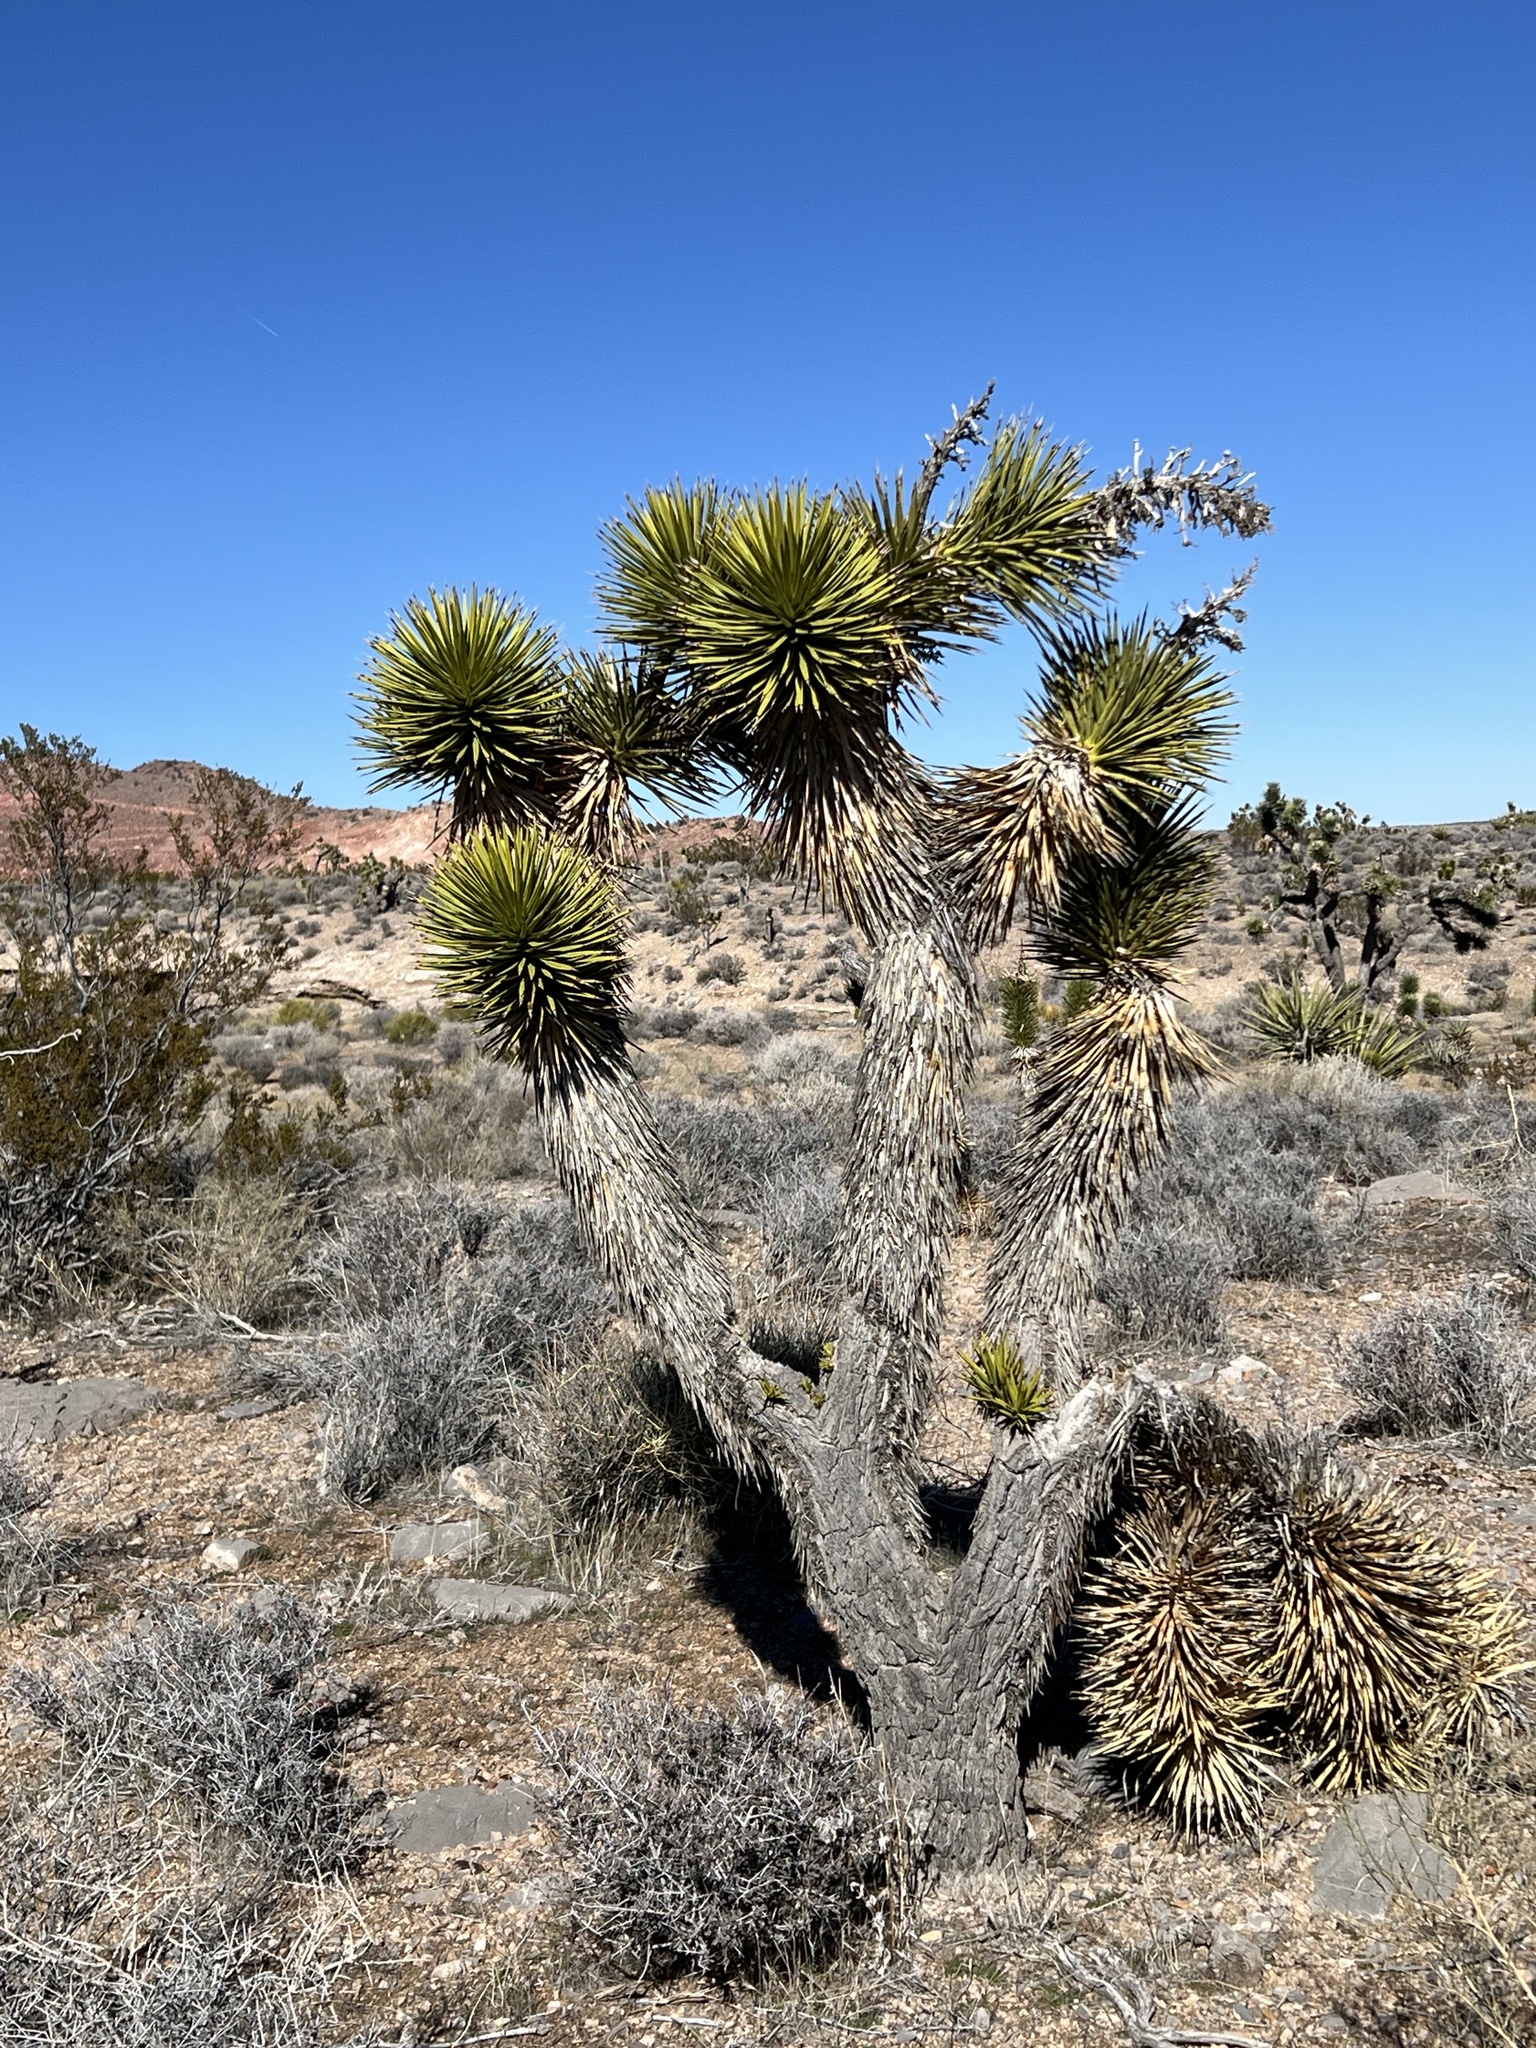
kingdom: Plantae
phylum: Tracheophyta
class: Liliopsida
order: Asparagales
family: Asparagaceae
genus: Yucca
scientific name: Yucca brevifolia
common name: Joshua tree
